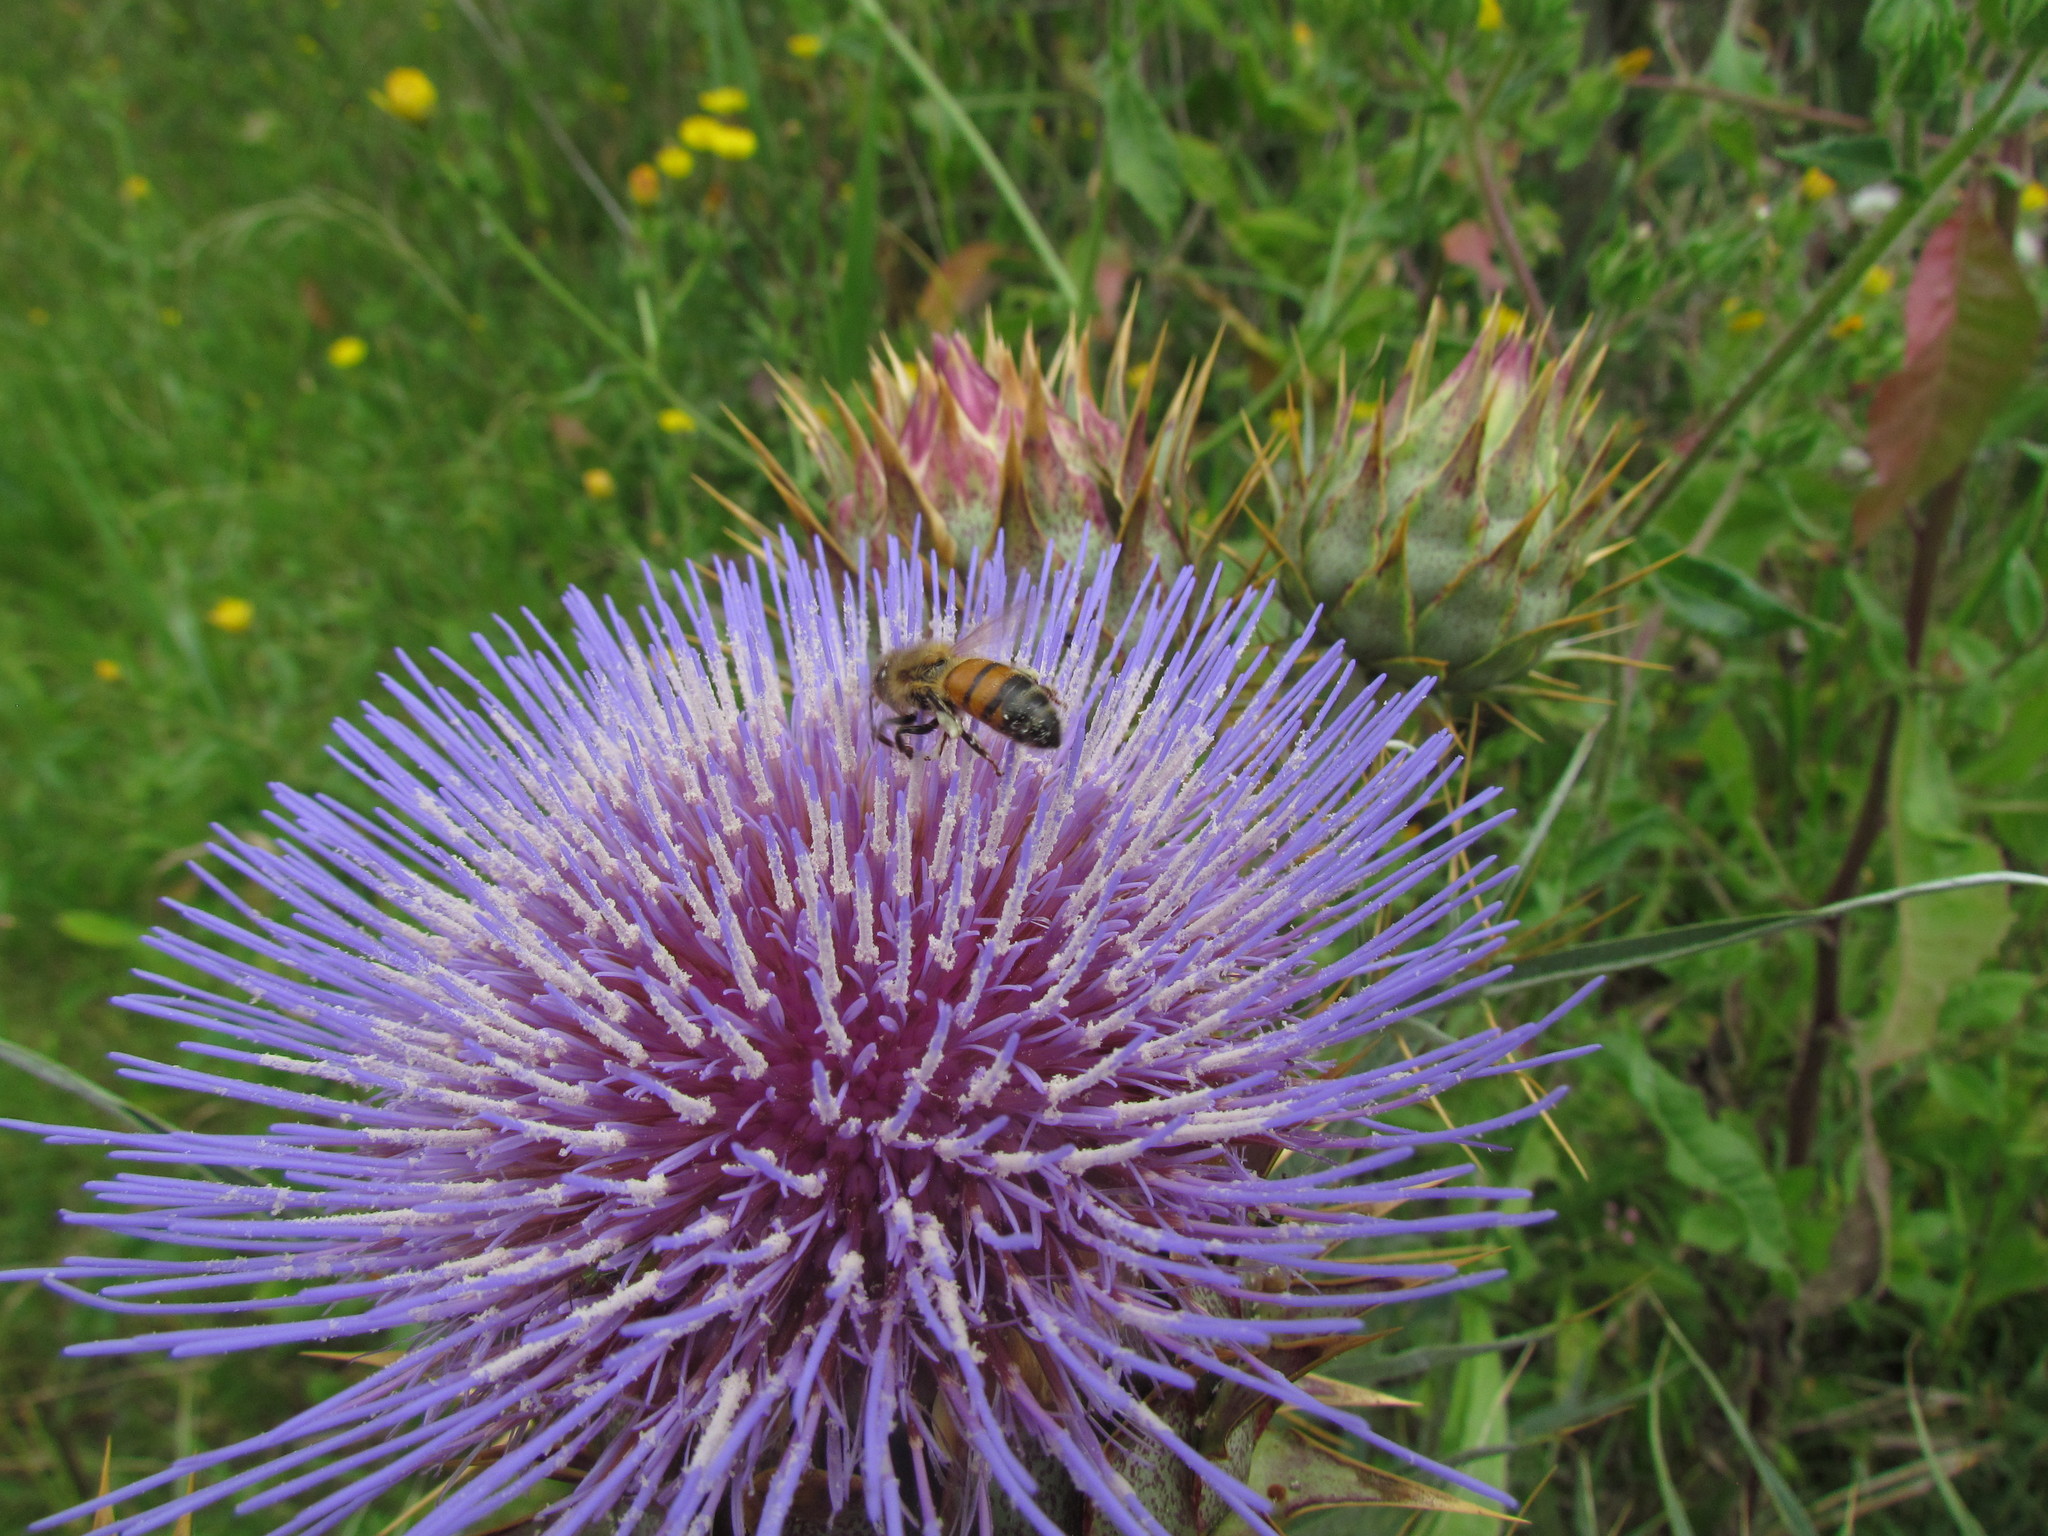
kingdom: Animalia
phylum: Arthropoda
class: Insecta
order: Hymenoptera
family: Apidae
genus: Apis
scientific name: Apis mellifera
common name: Honey bee
